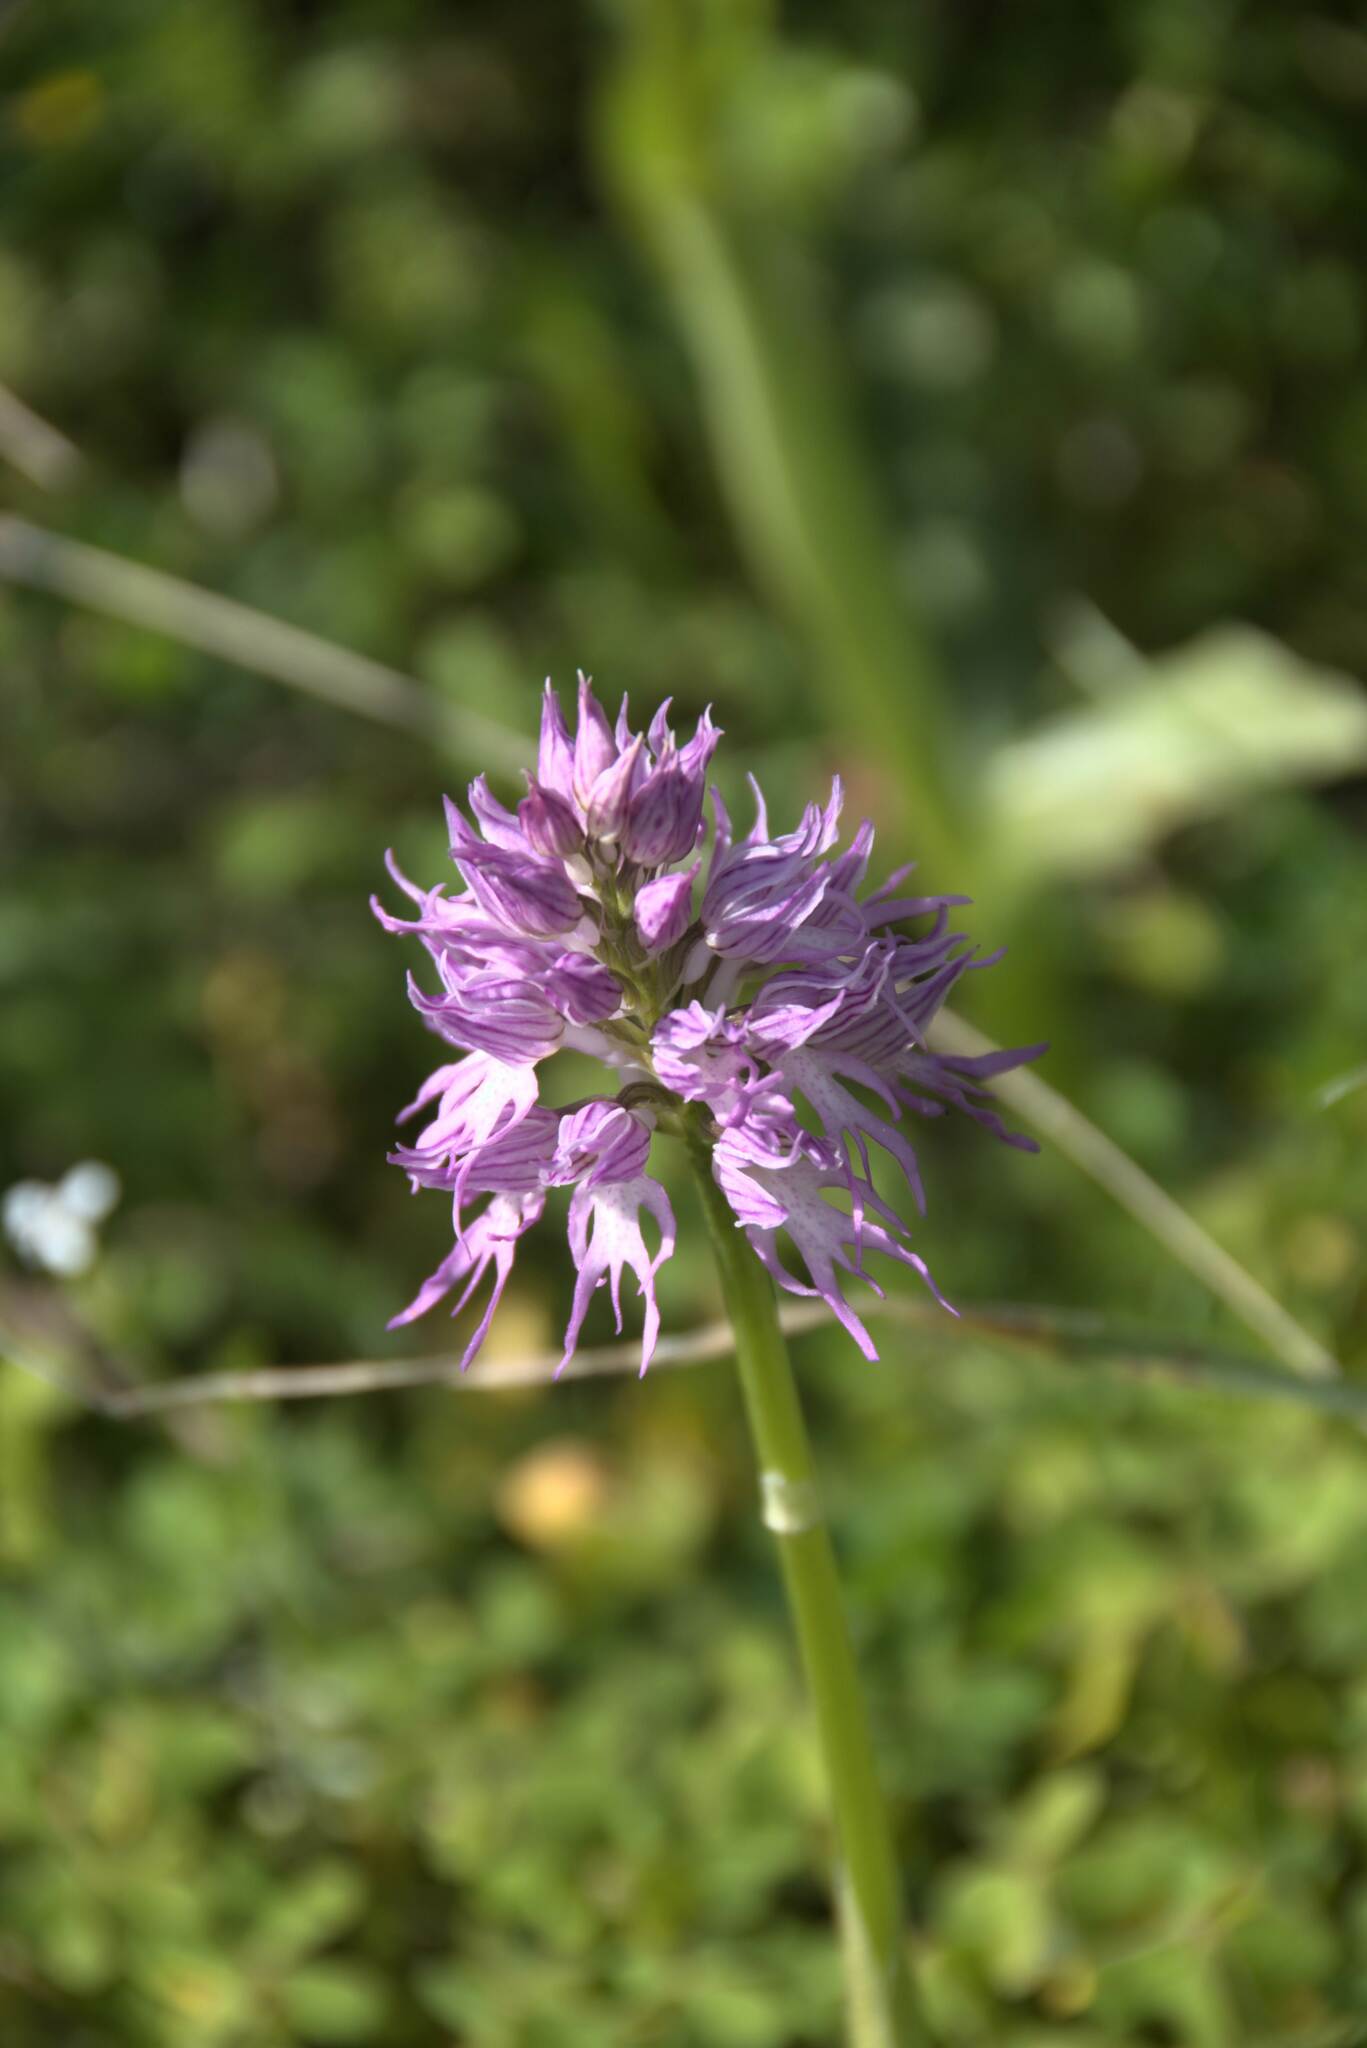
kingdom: Plantae
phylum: Tracheophyta
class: Liliopsida
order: Asparagales
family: Orchidaceae
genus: Orchis
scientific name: Orchis italica
